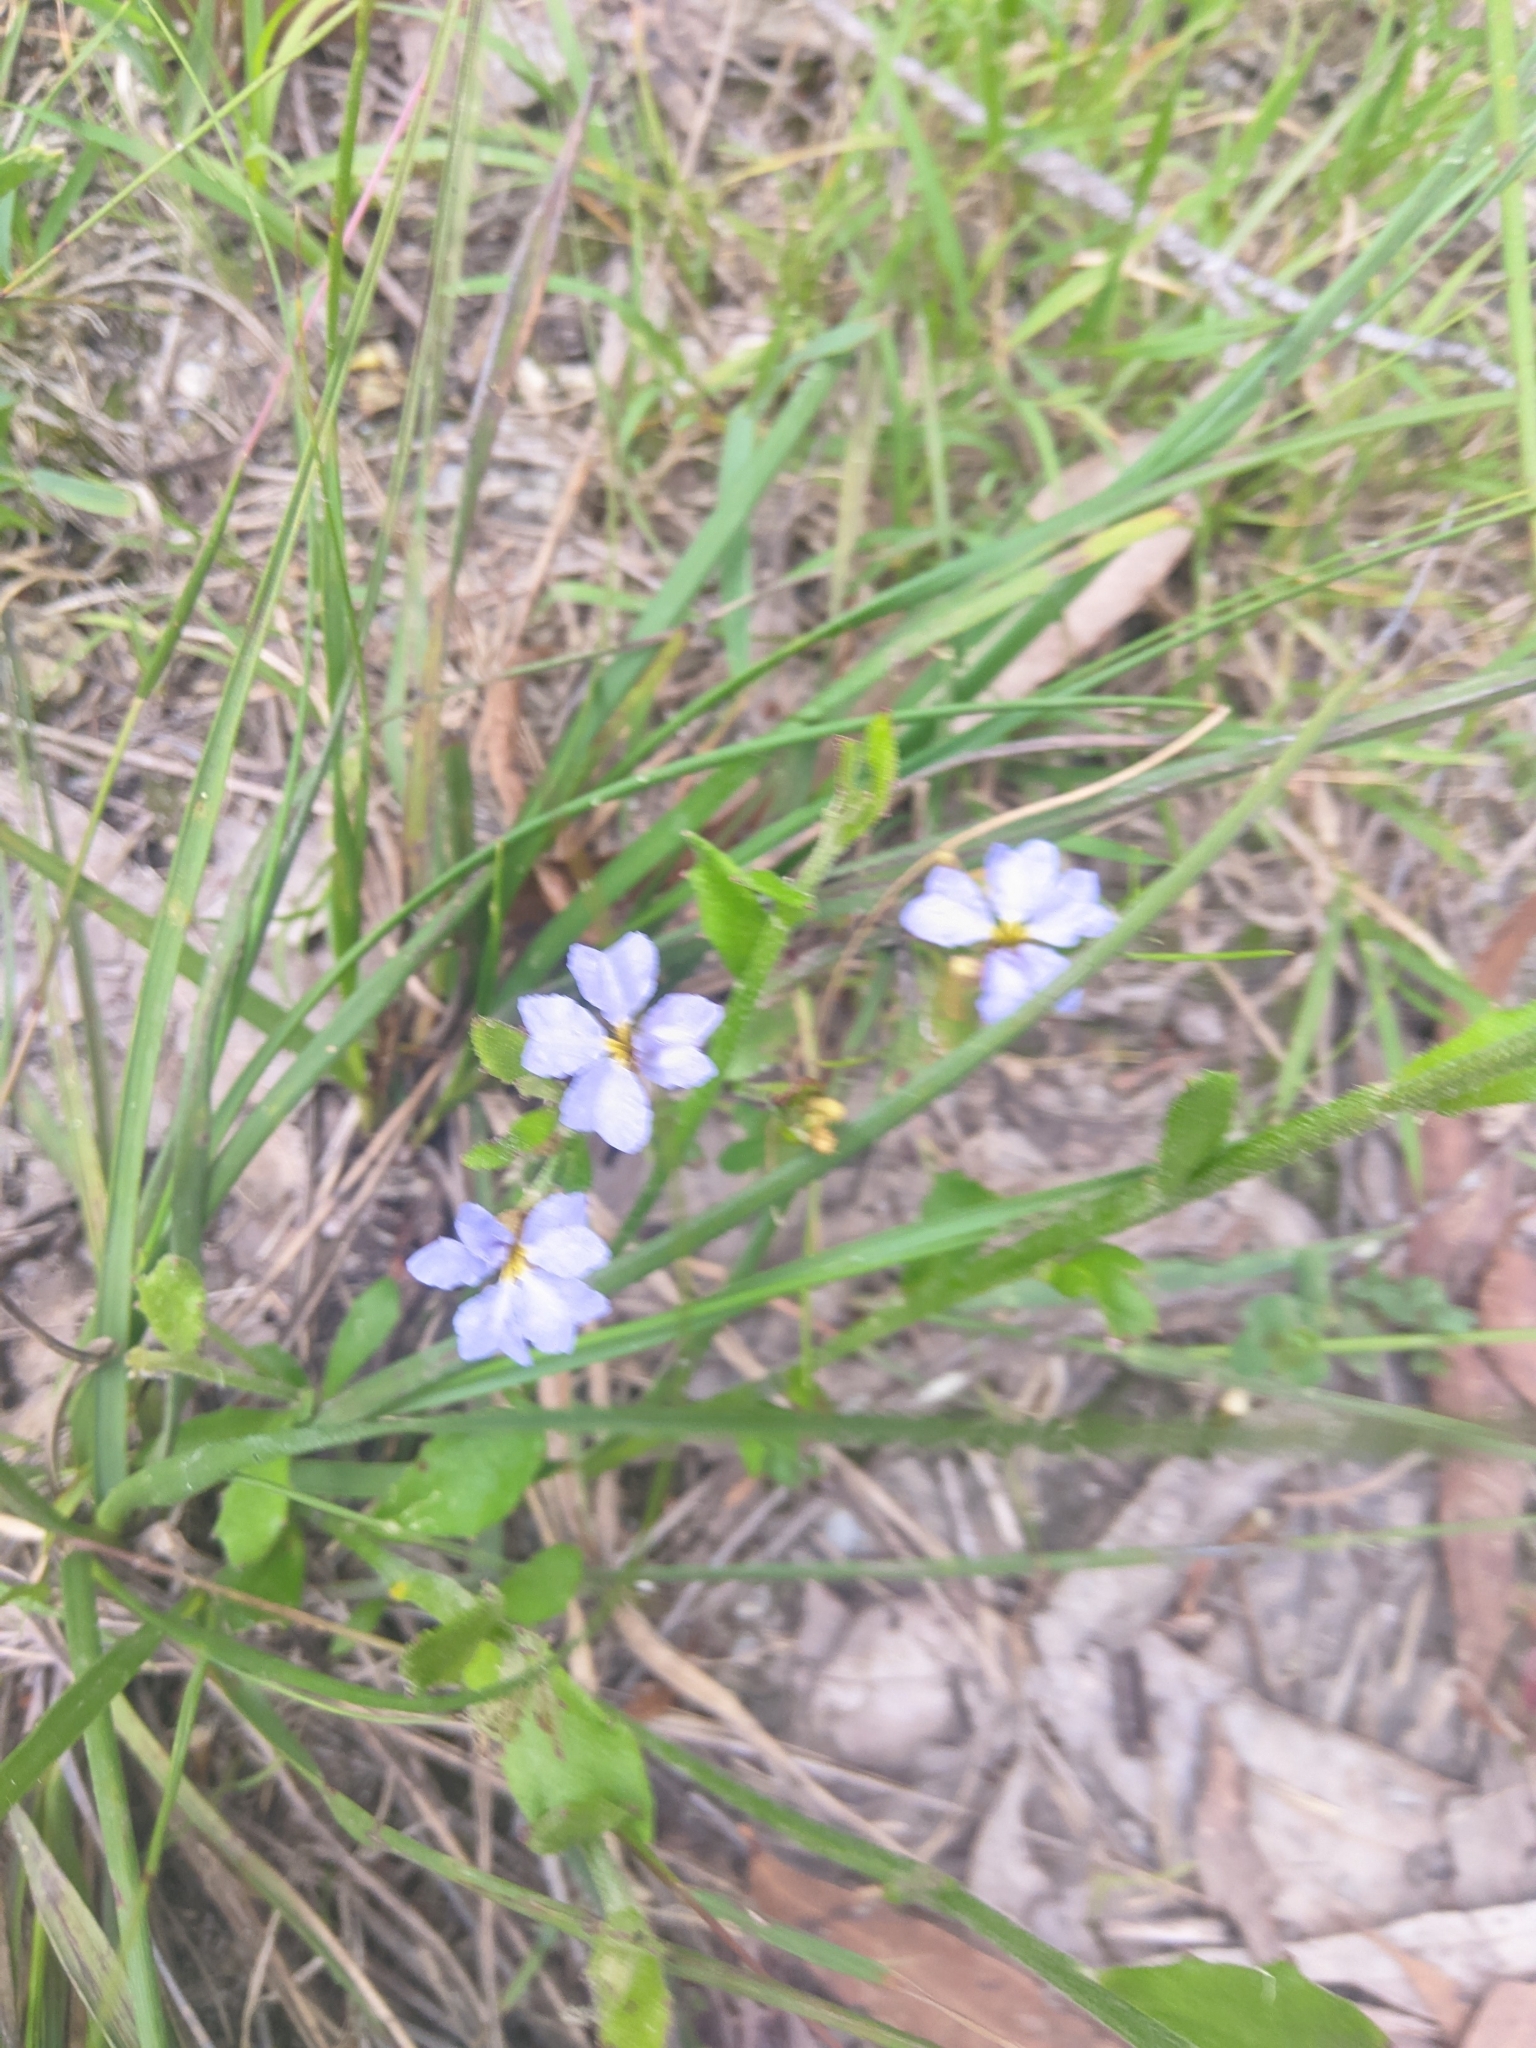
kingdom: Plantae
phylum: Tracheophyta
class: Magnoliopsida
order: Asterales
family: Goodeniaceae
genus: Dampiera
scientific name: Dampiera stricta
